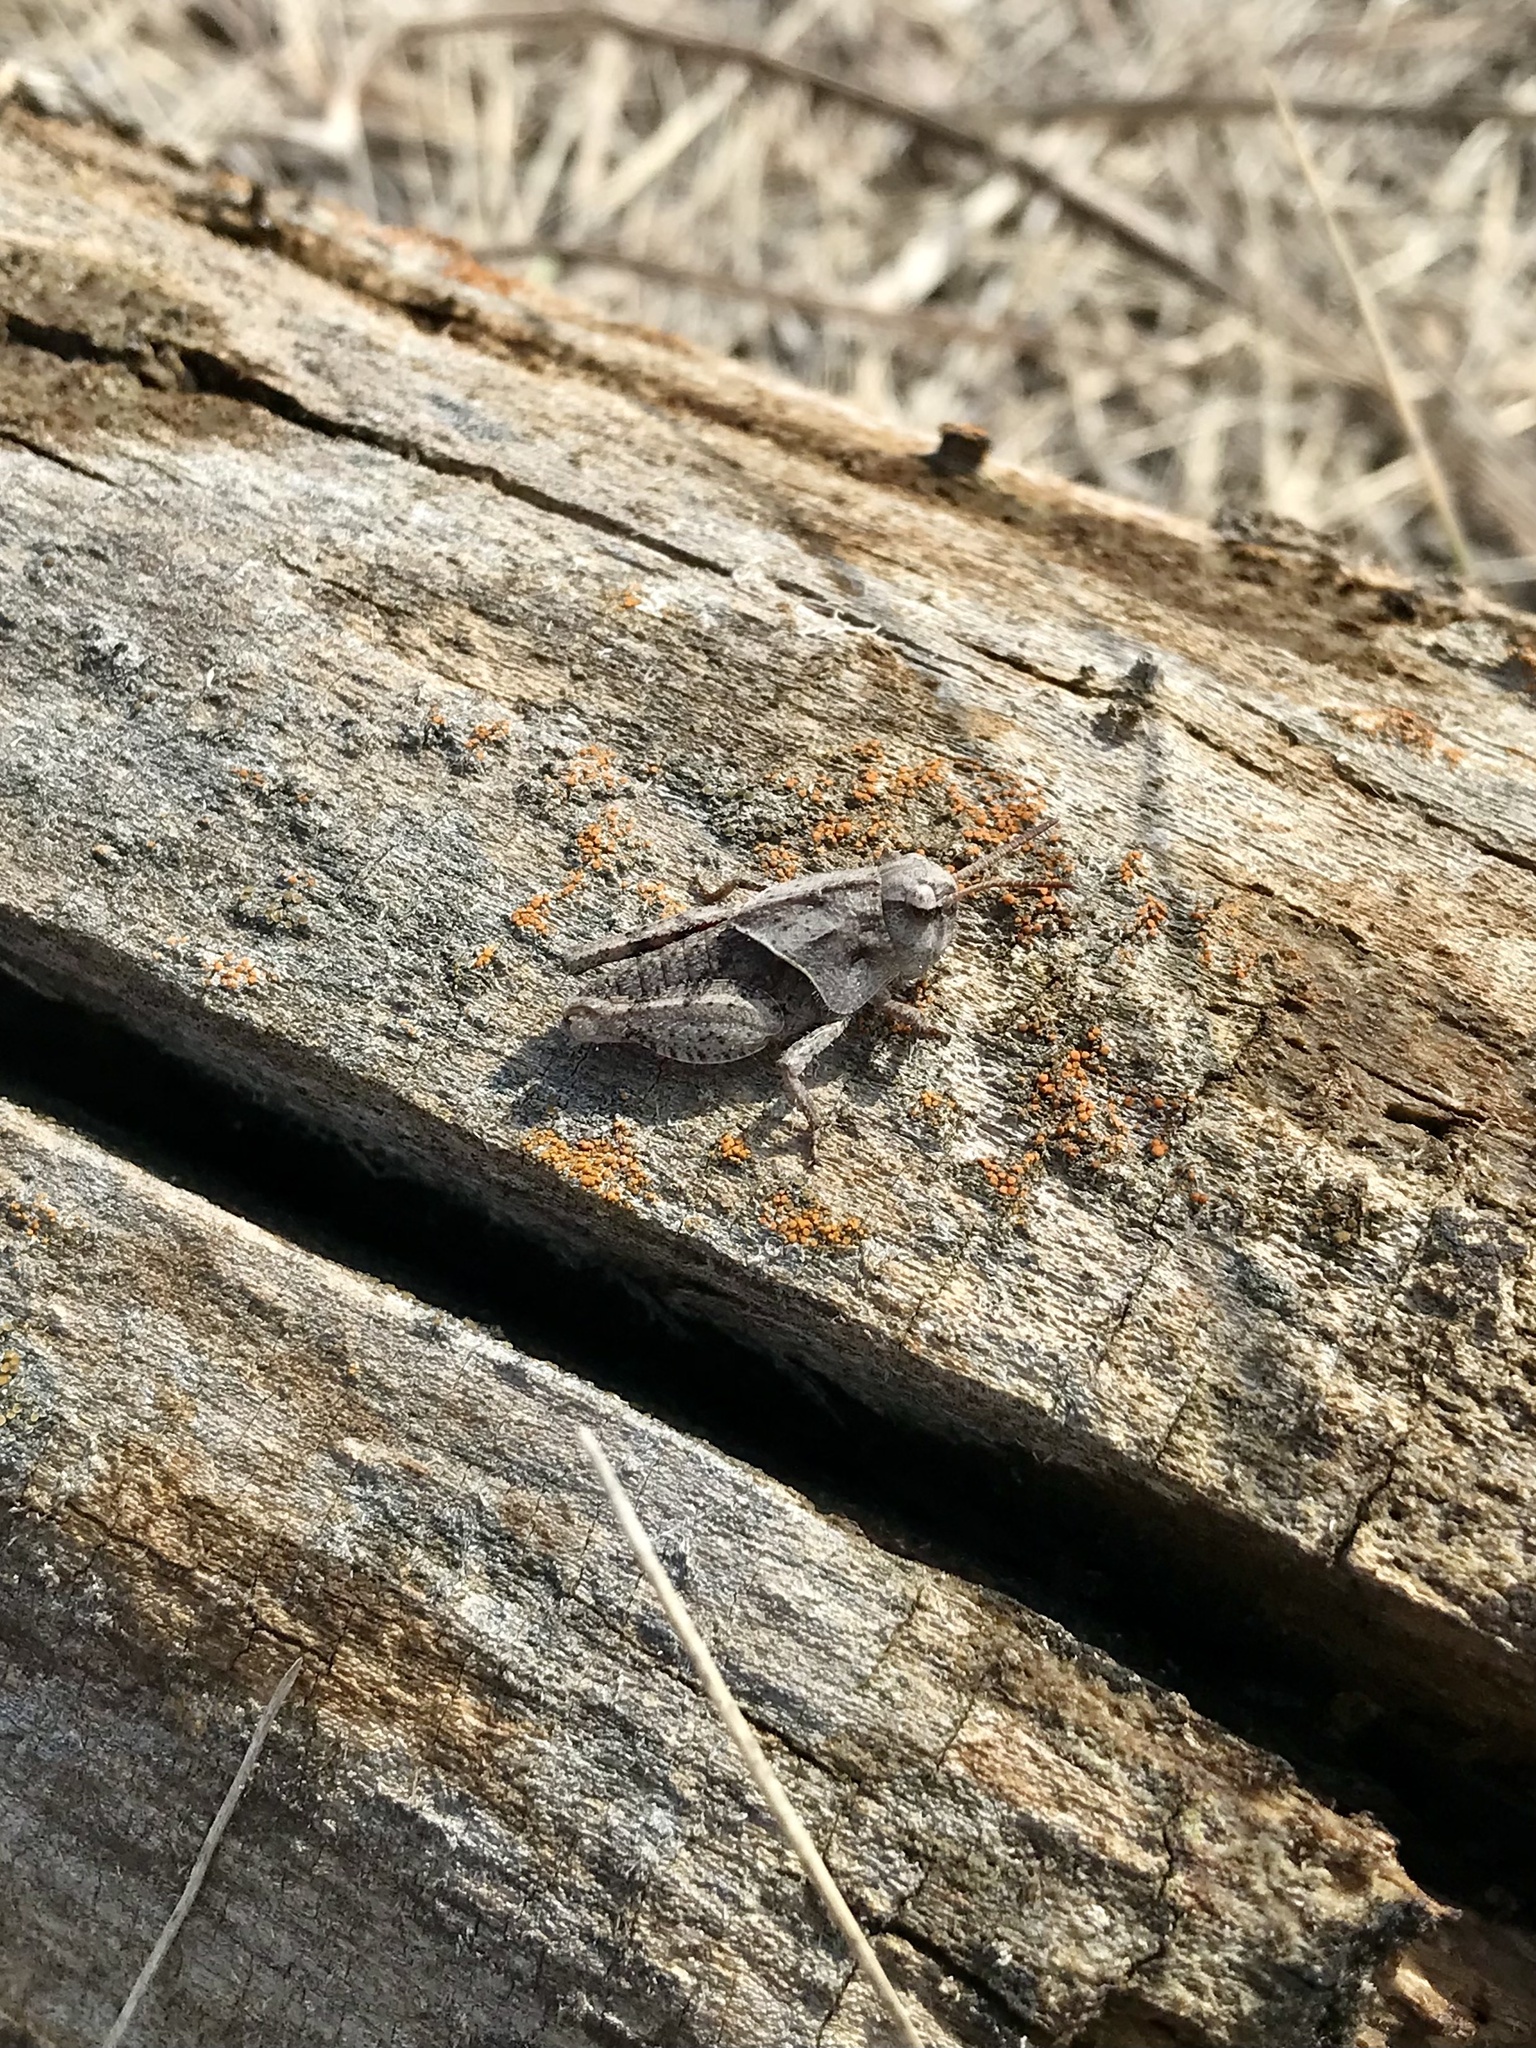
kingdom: Animalia
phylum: Arthropoda
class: Insecta
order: Orthoptera
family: Acrididae
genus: Pardalophora
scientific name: Pardalophora apiculata
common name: Coral-winged locust
